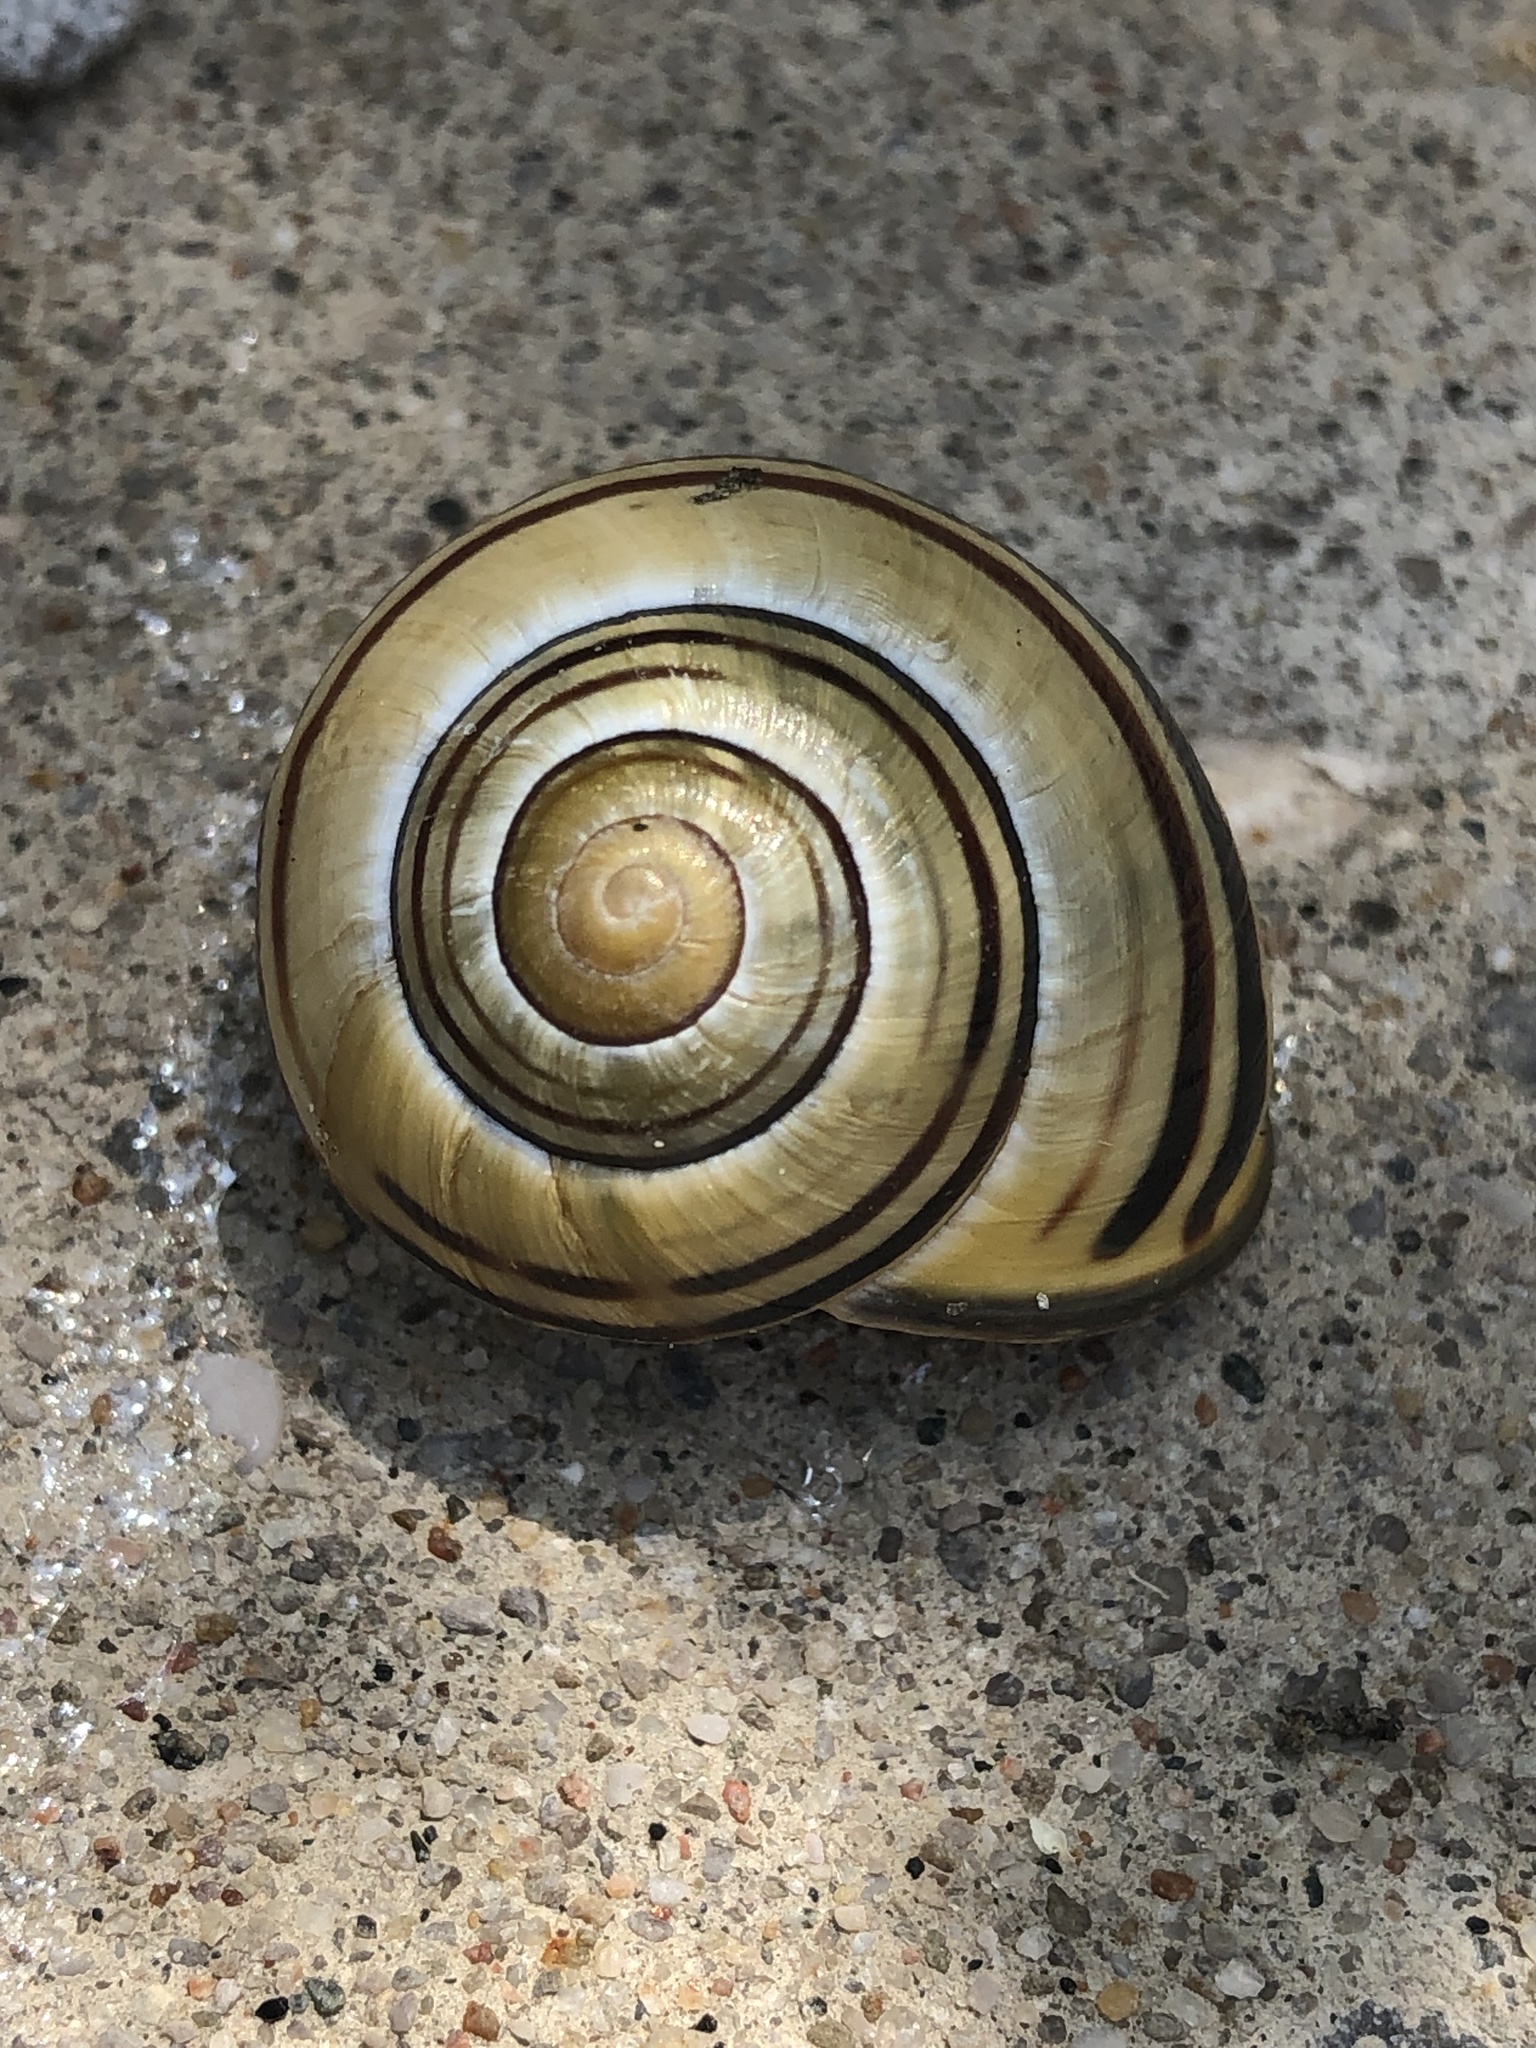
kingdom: Animalia
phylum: Mollusca
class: Gastropoda
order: Stylommatophora
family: Helicidae
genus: Cepaea
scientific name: Cepaea nemoralis
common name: Grovesnail
